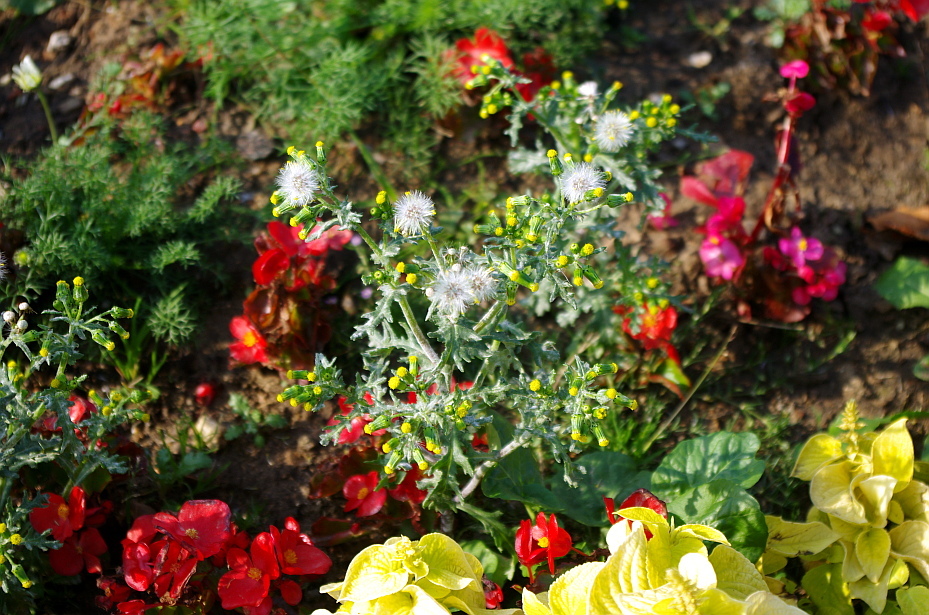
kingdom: Plantae
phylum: Tracheophyta
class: Magnoliopsida
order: Asterales
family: Asteraceae
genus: Senecio
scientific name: Senecio vulgaris
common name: Old-man-in-the-spring
